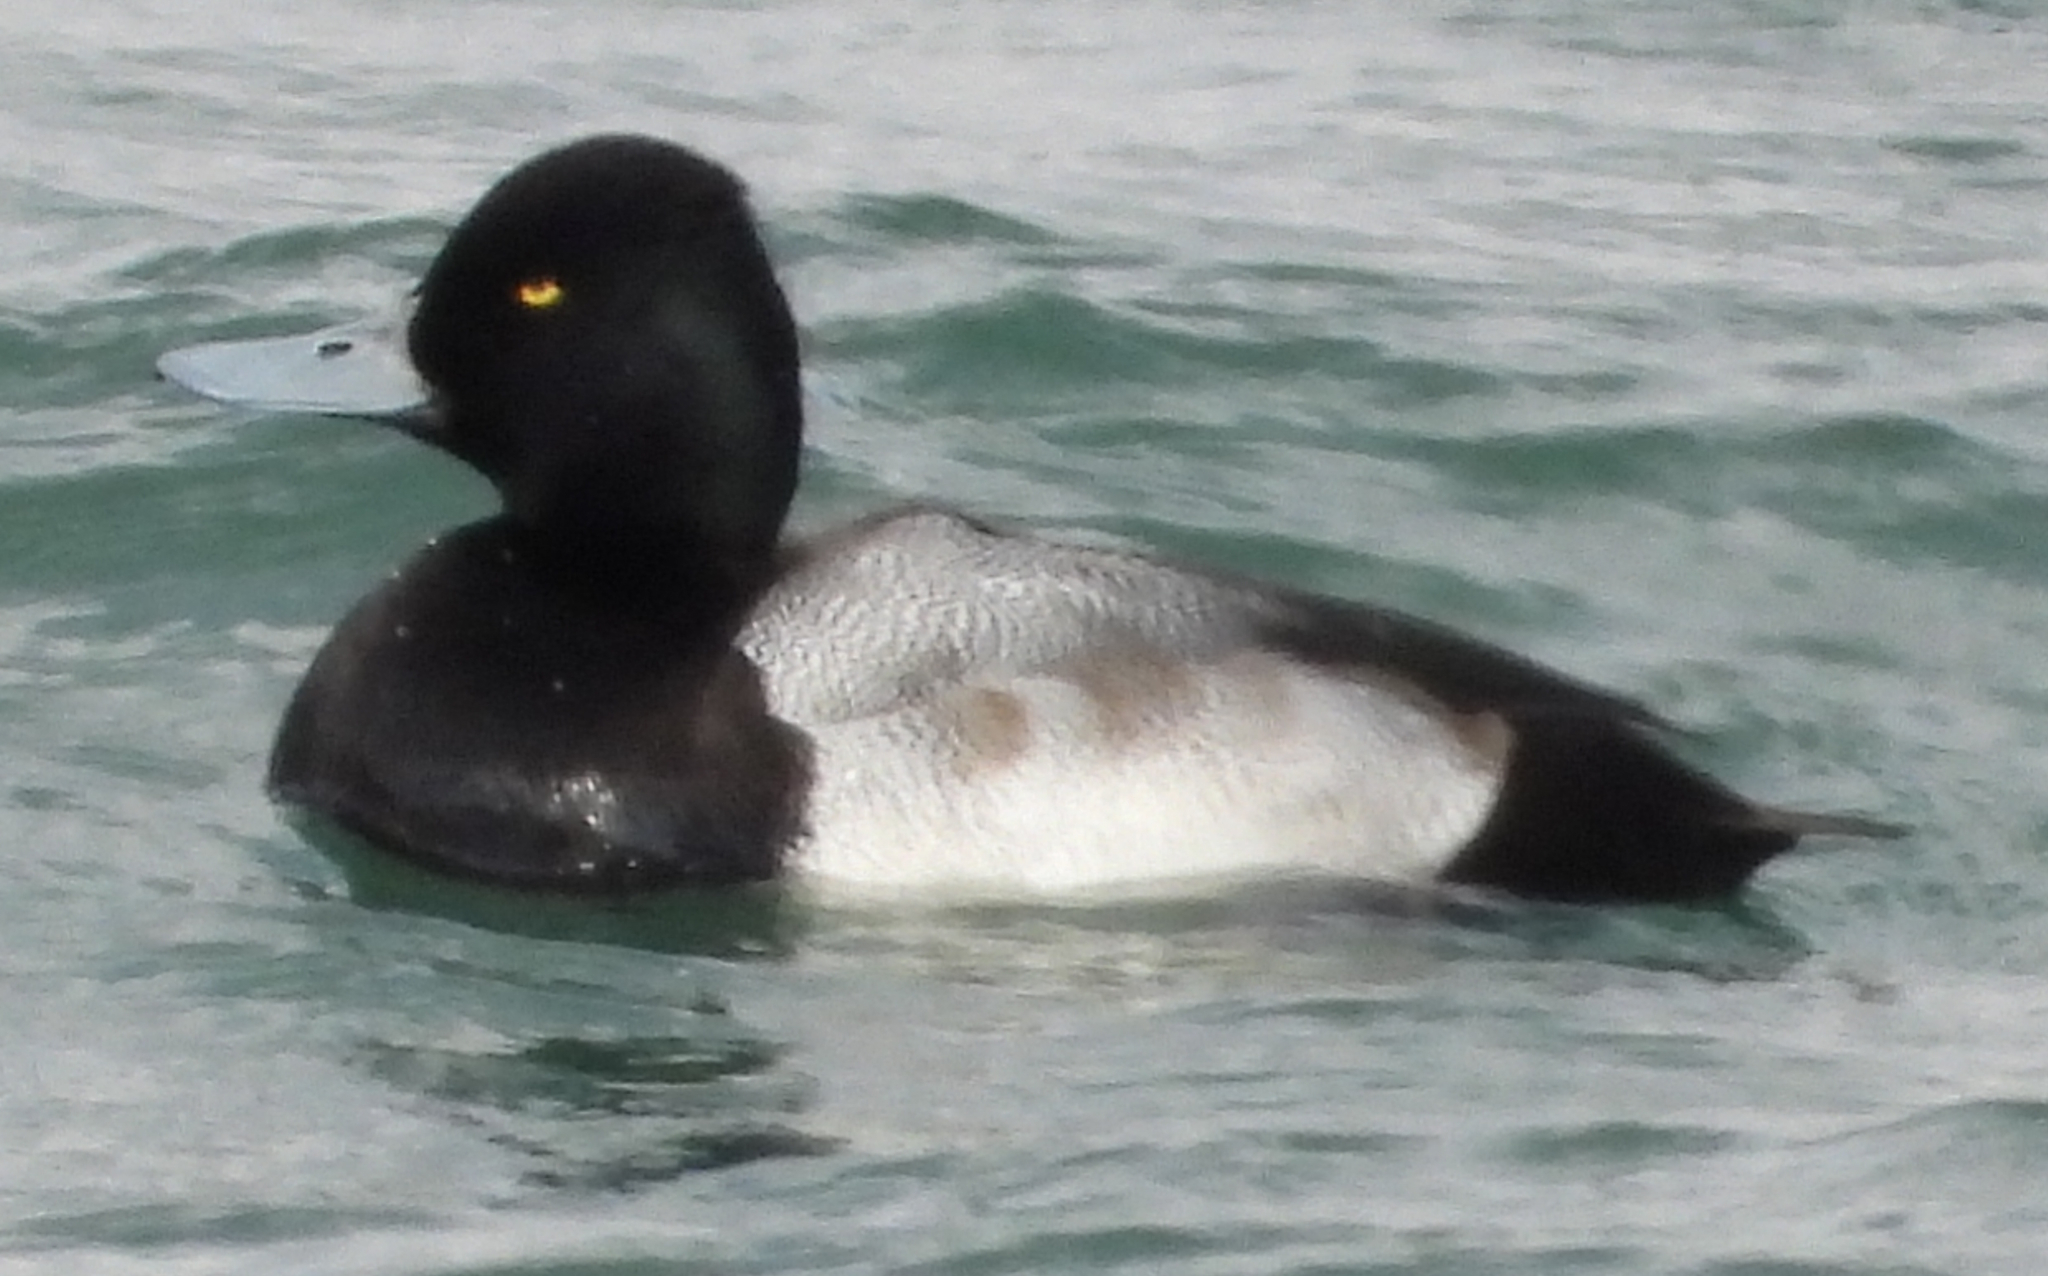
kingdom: Animalia
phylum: Chordata
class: Aves
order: Anseriformes
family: Anatidae
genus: Aythya
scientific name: Aythya affinis
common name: Lesser scaup
